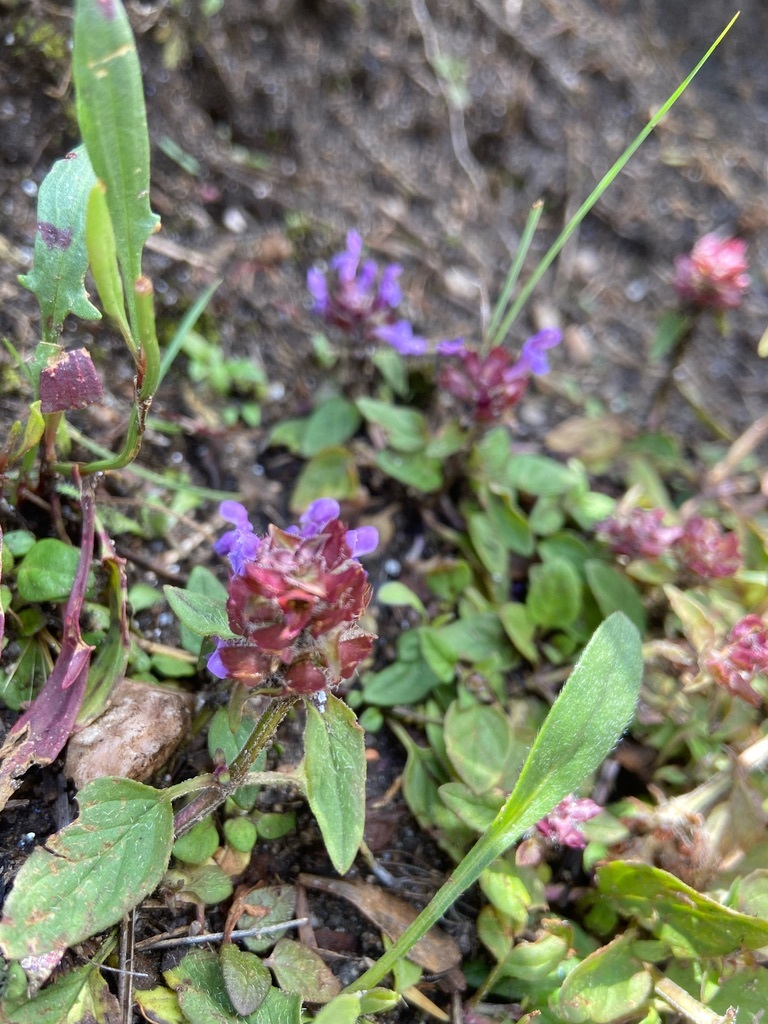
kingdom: Plantae
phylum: Tracheophyta
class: Magnoliopsida
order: Lamiales
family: Lamiaceae
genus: Prunella
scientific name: Prunella vulgaris
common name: Heal-all
